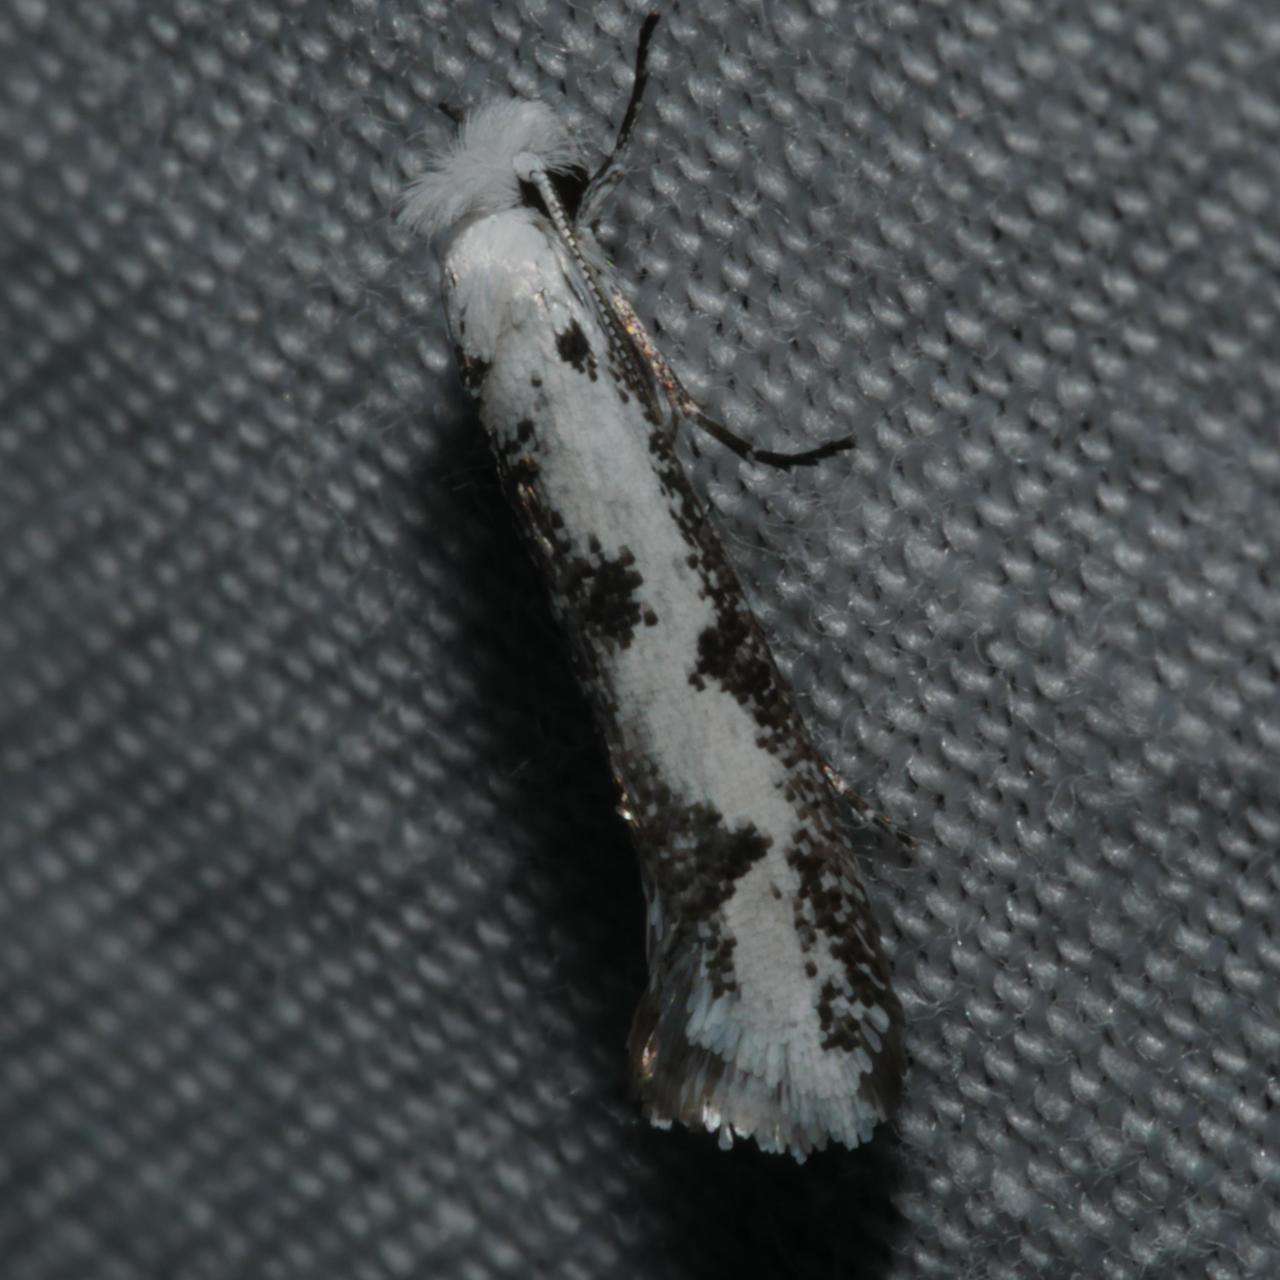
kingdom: Animalia
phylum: Arthropoda
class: Insecta
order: Lepidoptera
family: Tineidae
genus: Metapherna
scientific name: Metapherna castella
